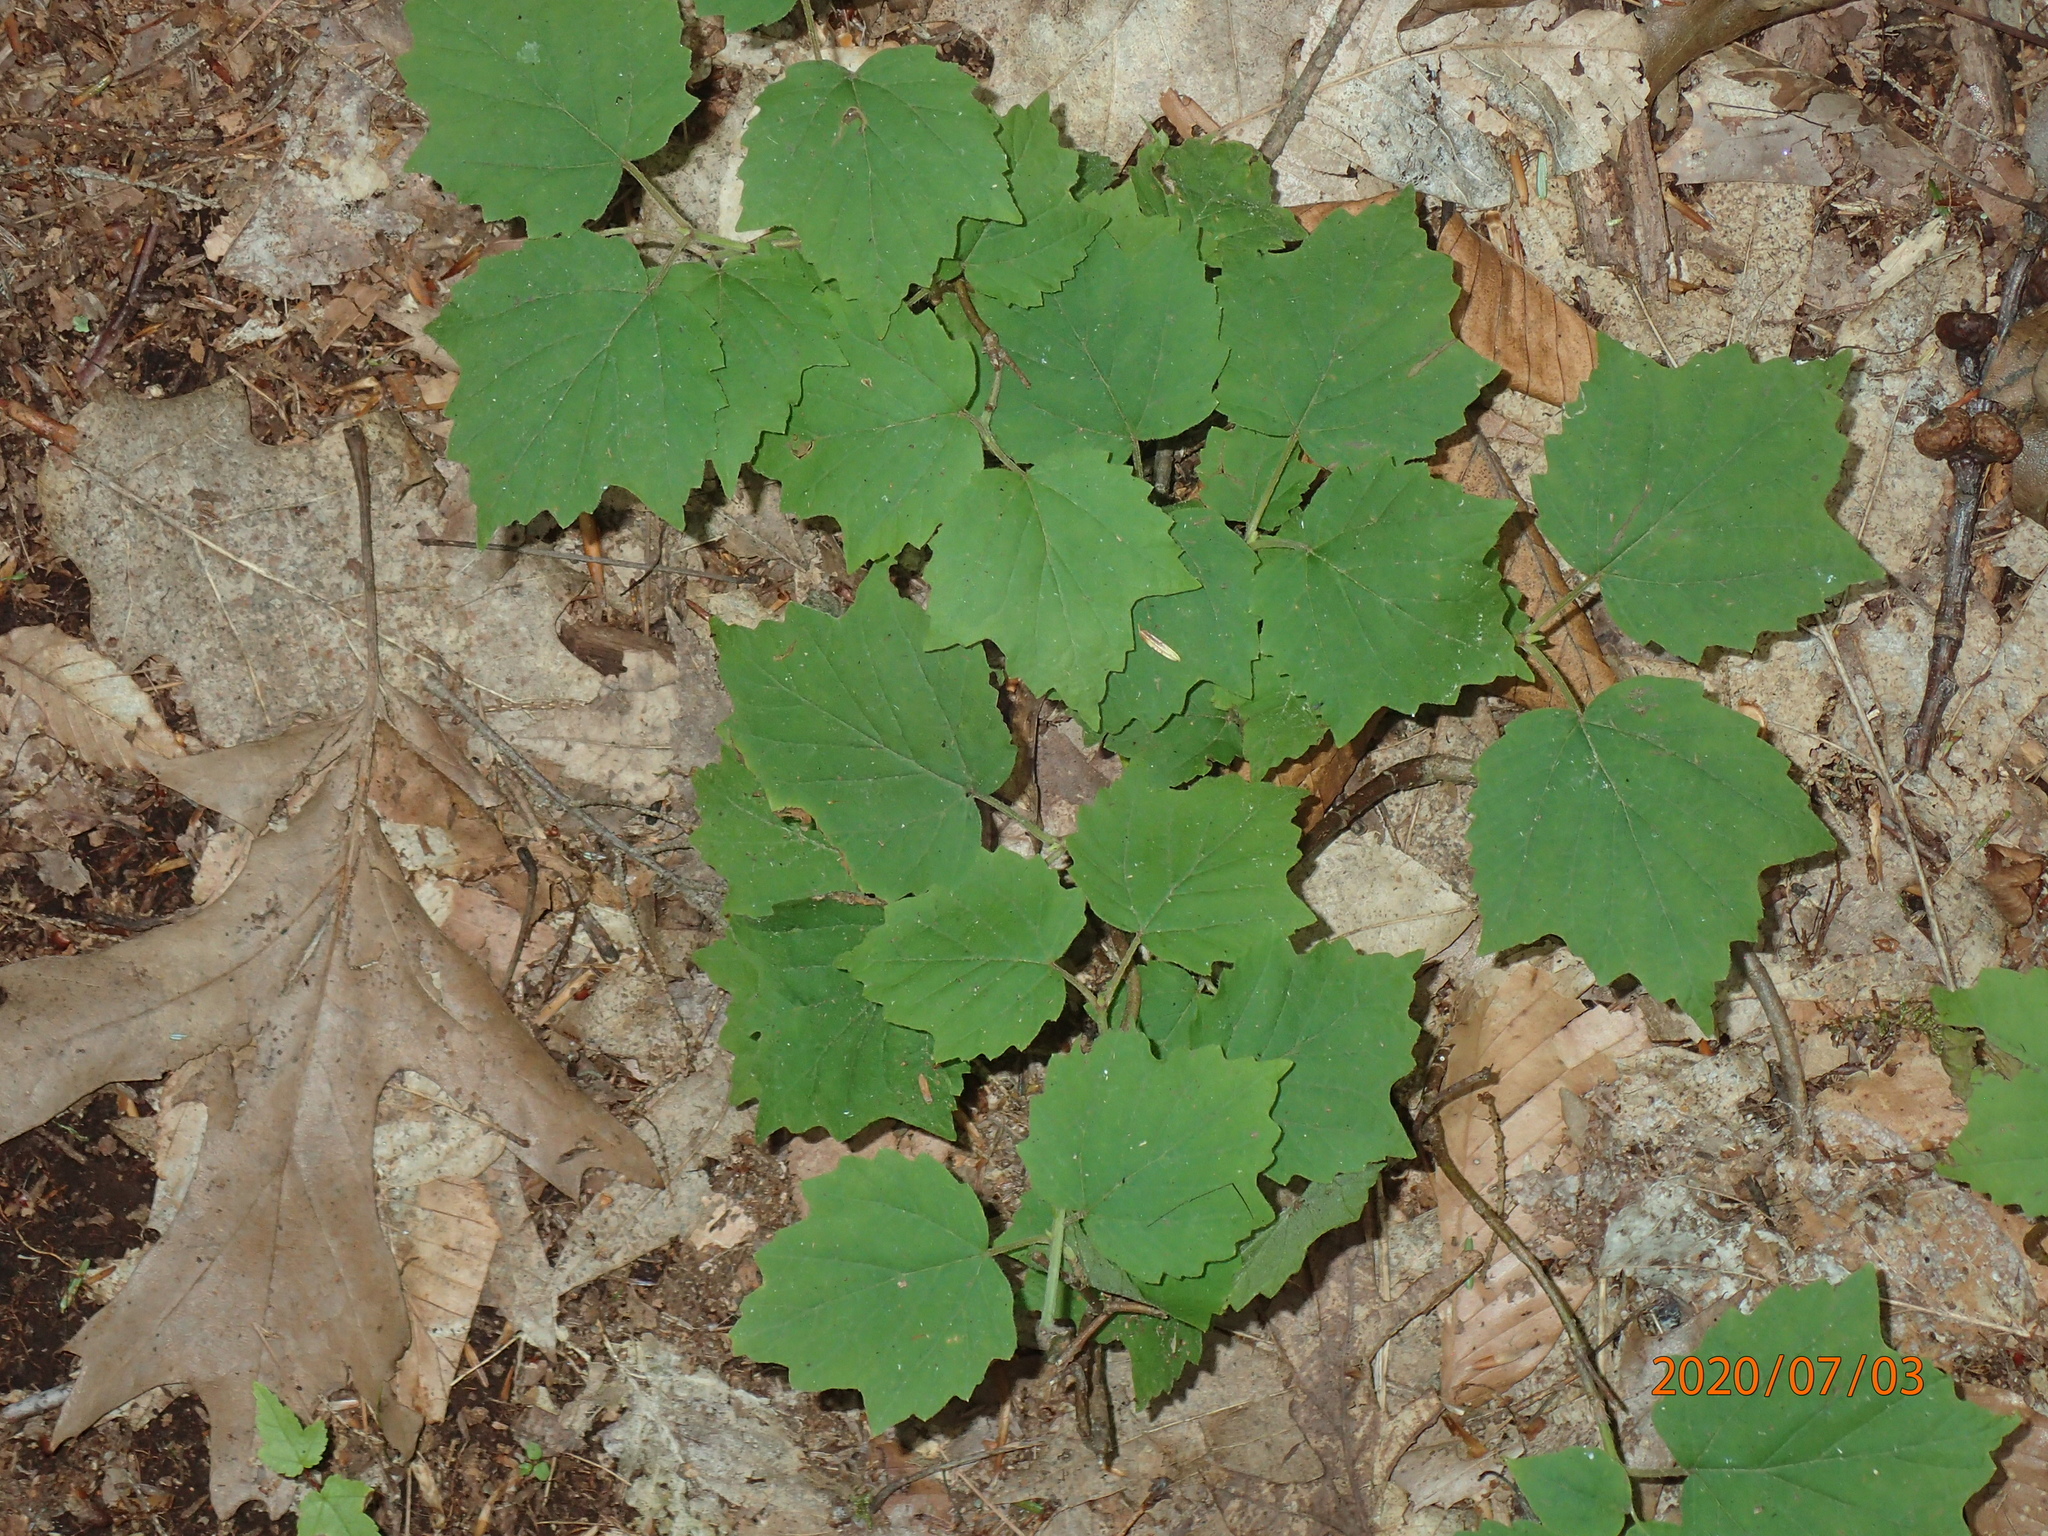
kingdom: Plantae
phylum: Tracheophyta
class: Magnoliopsida
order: Dipsacales
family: Viburnaceae
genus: Viburnum
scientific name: Viburnum acerifolium
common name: Dockmackie
